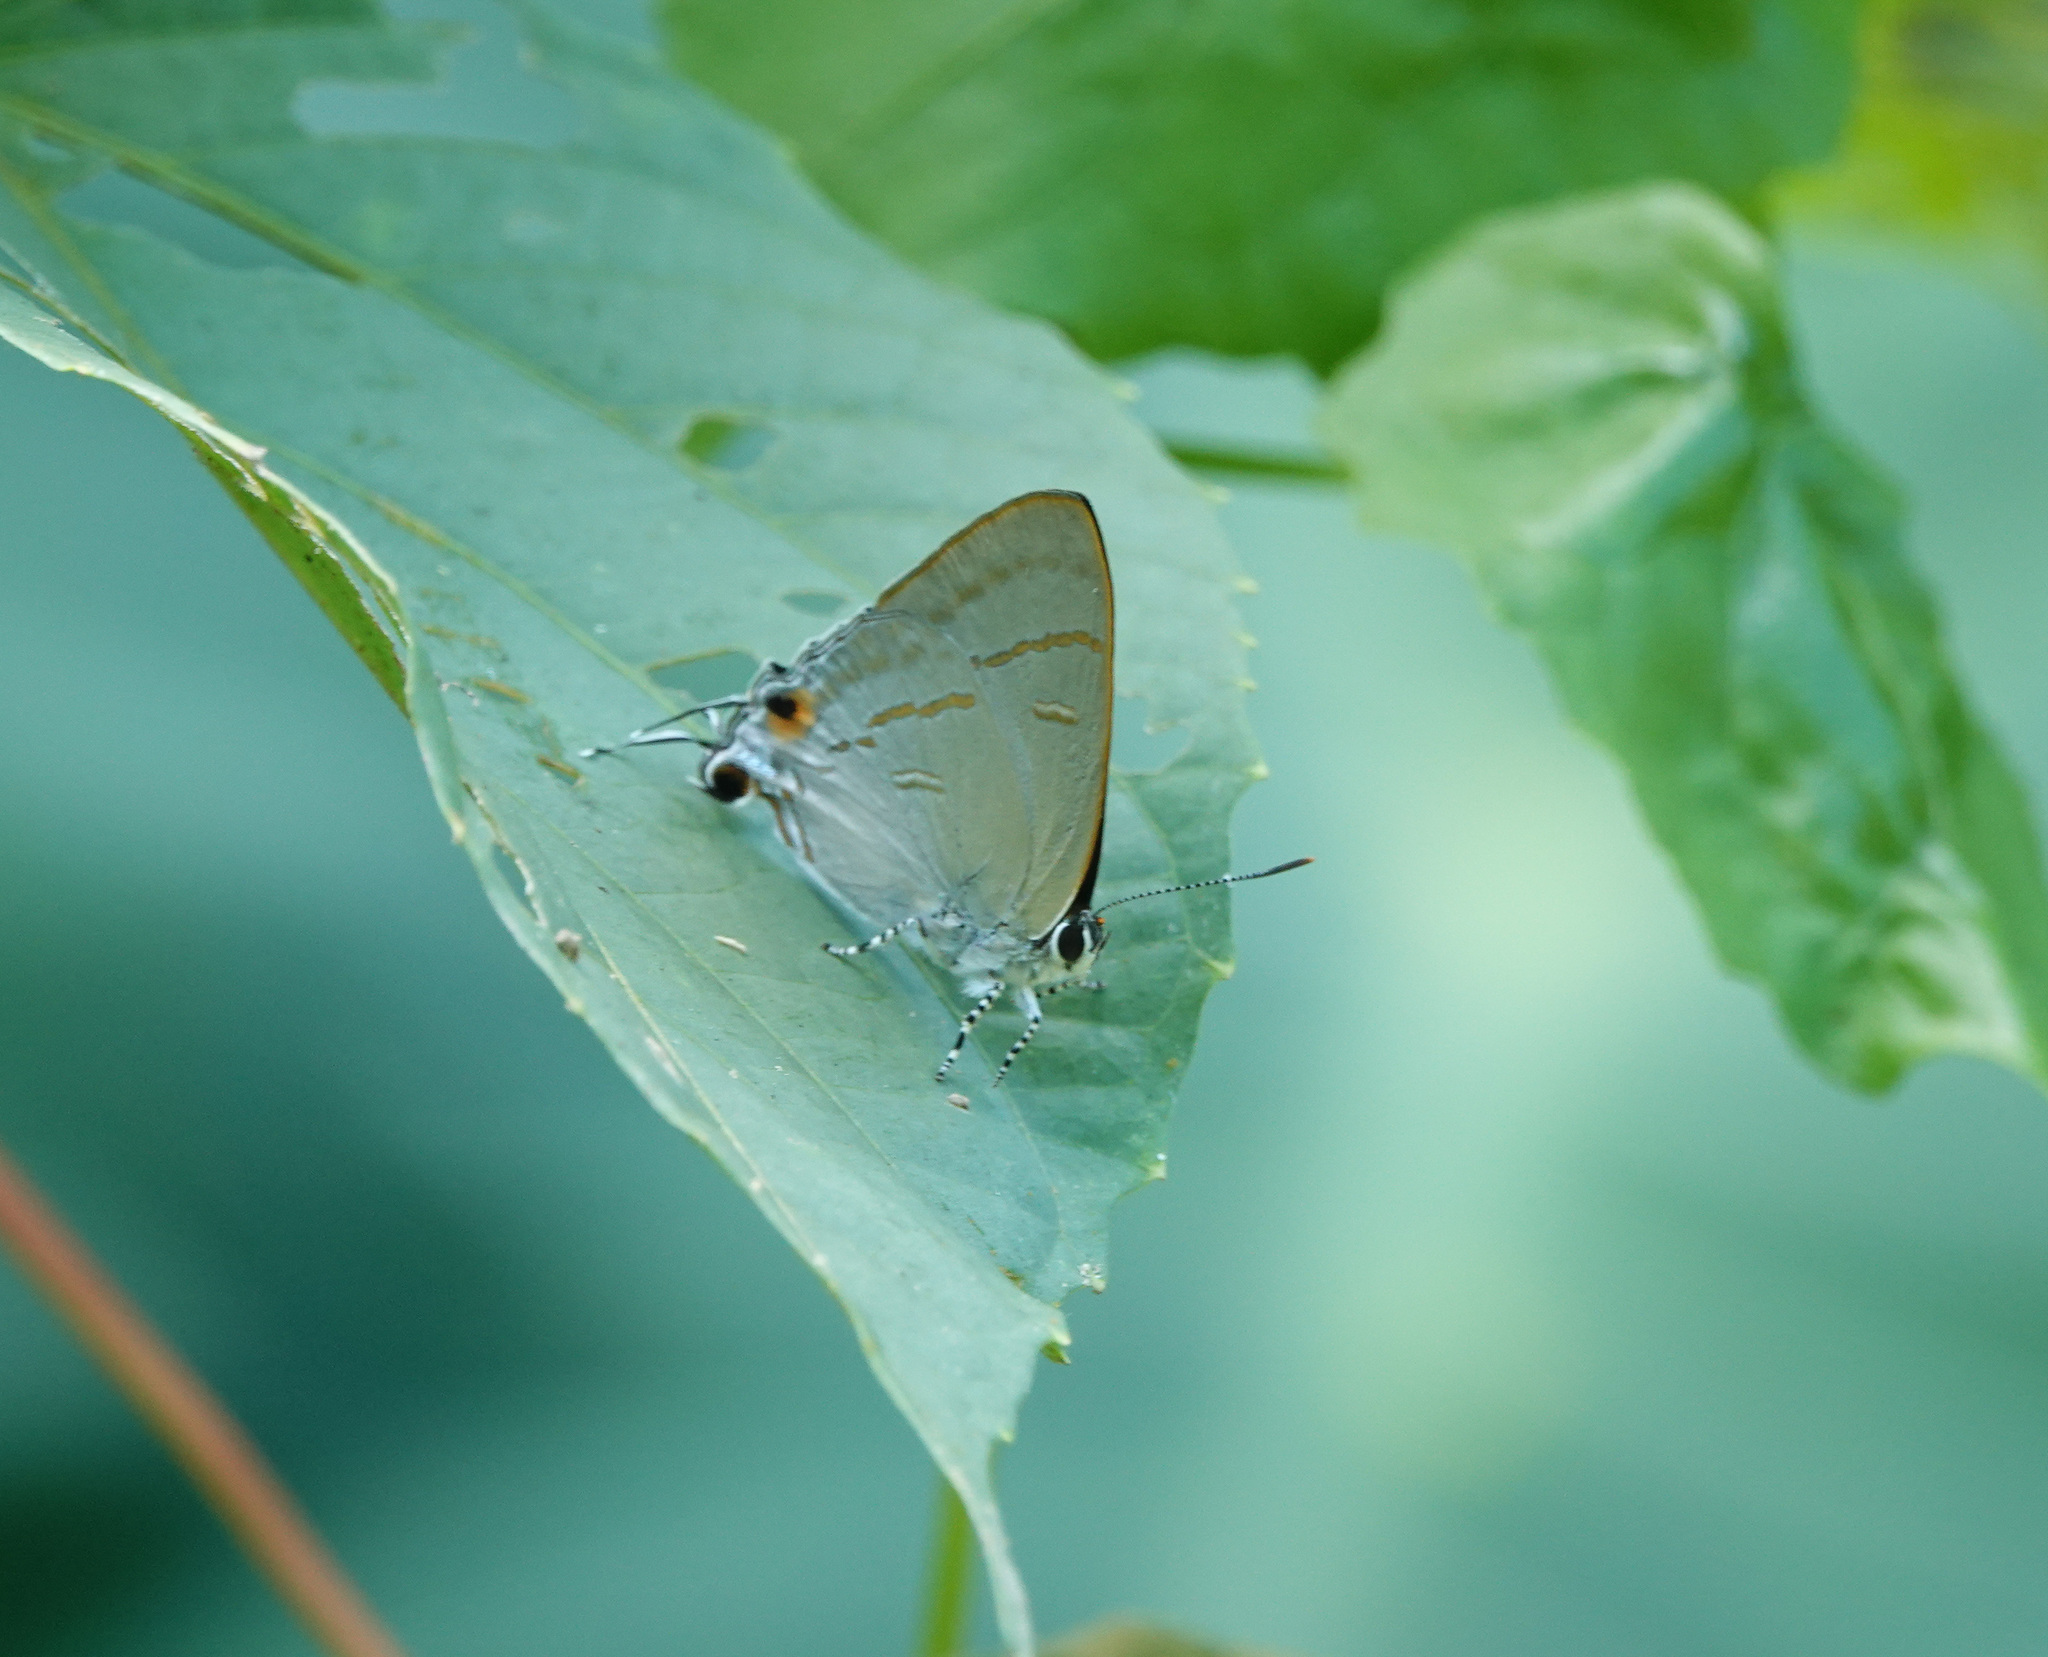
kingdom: Animalia
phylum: Arthropoda
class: Insecta
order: Lepidoptera
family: Lycaenidae
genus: Hypolycaena
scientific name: Hypolycaena erylus
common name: Common tit
